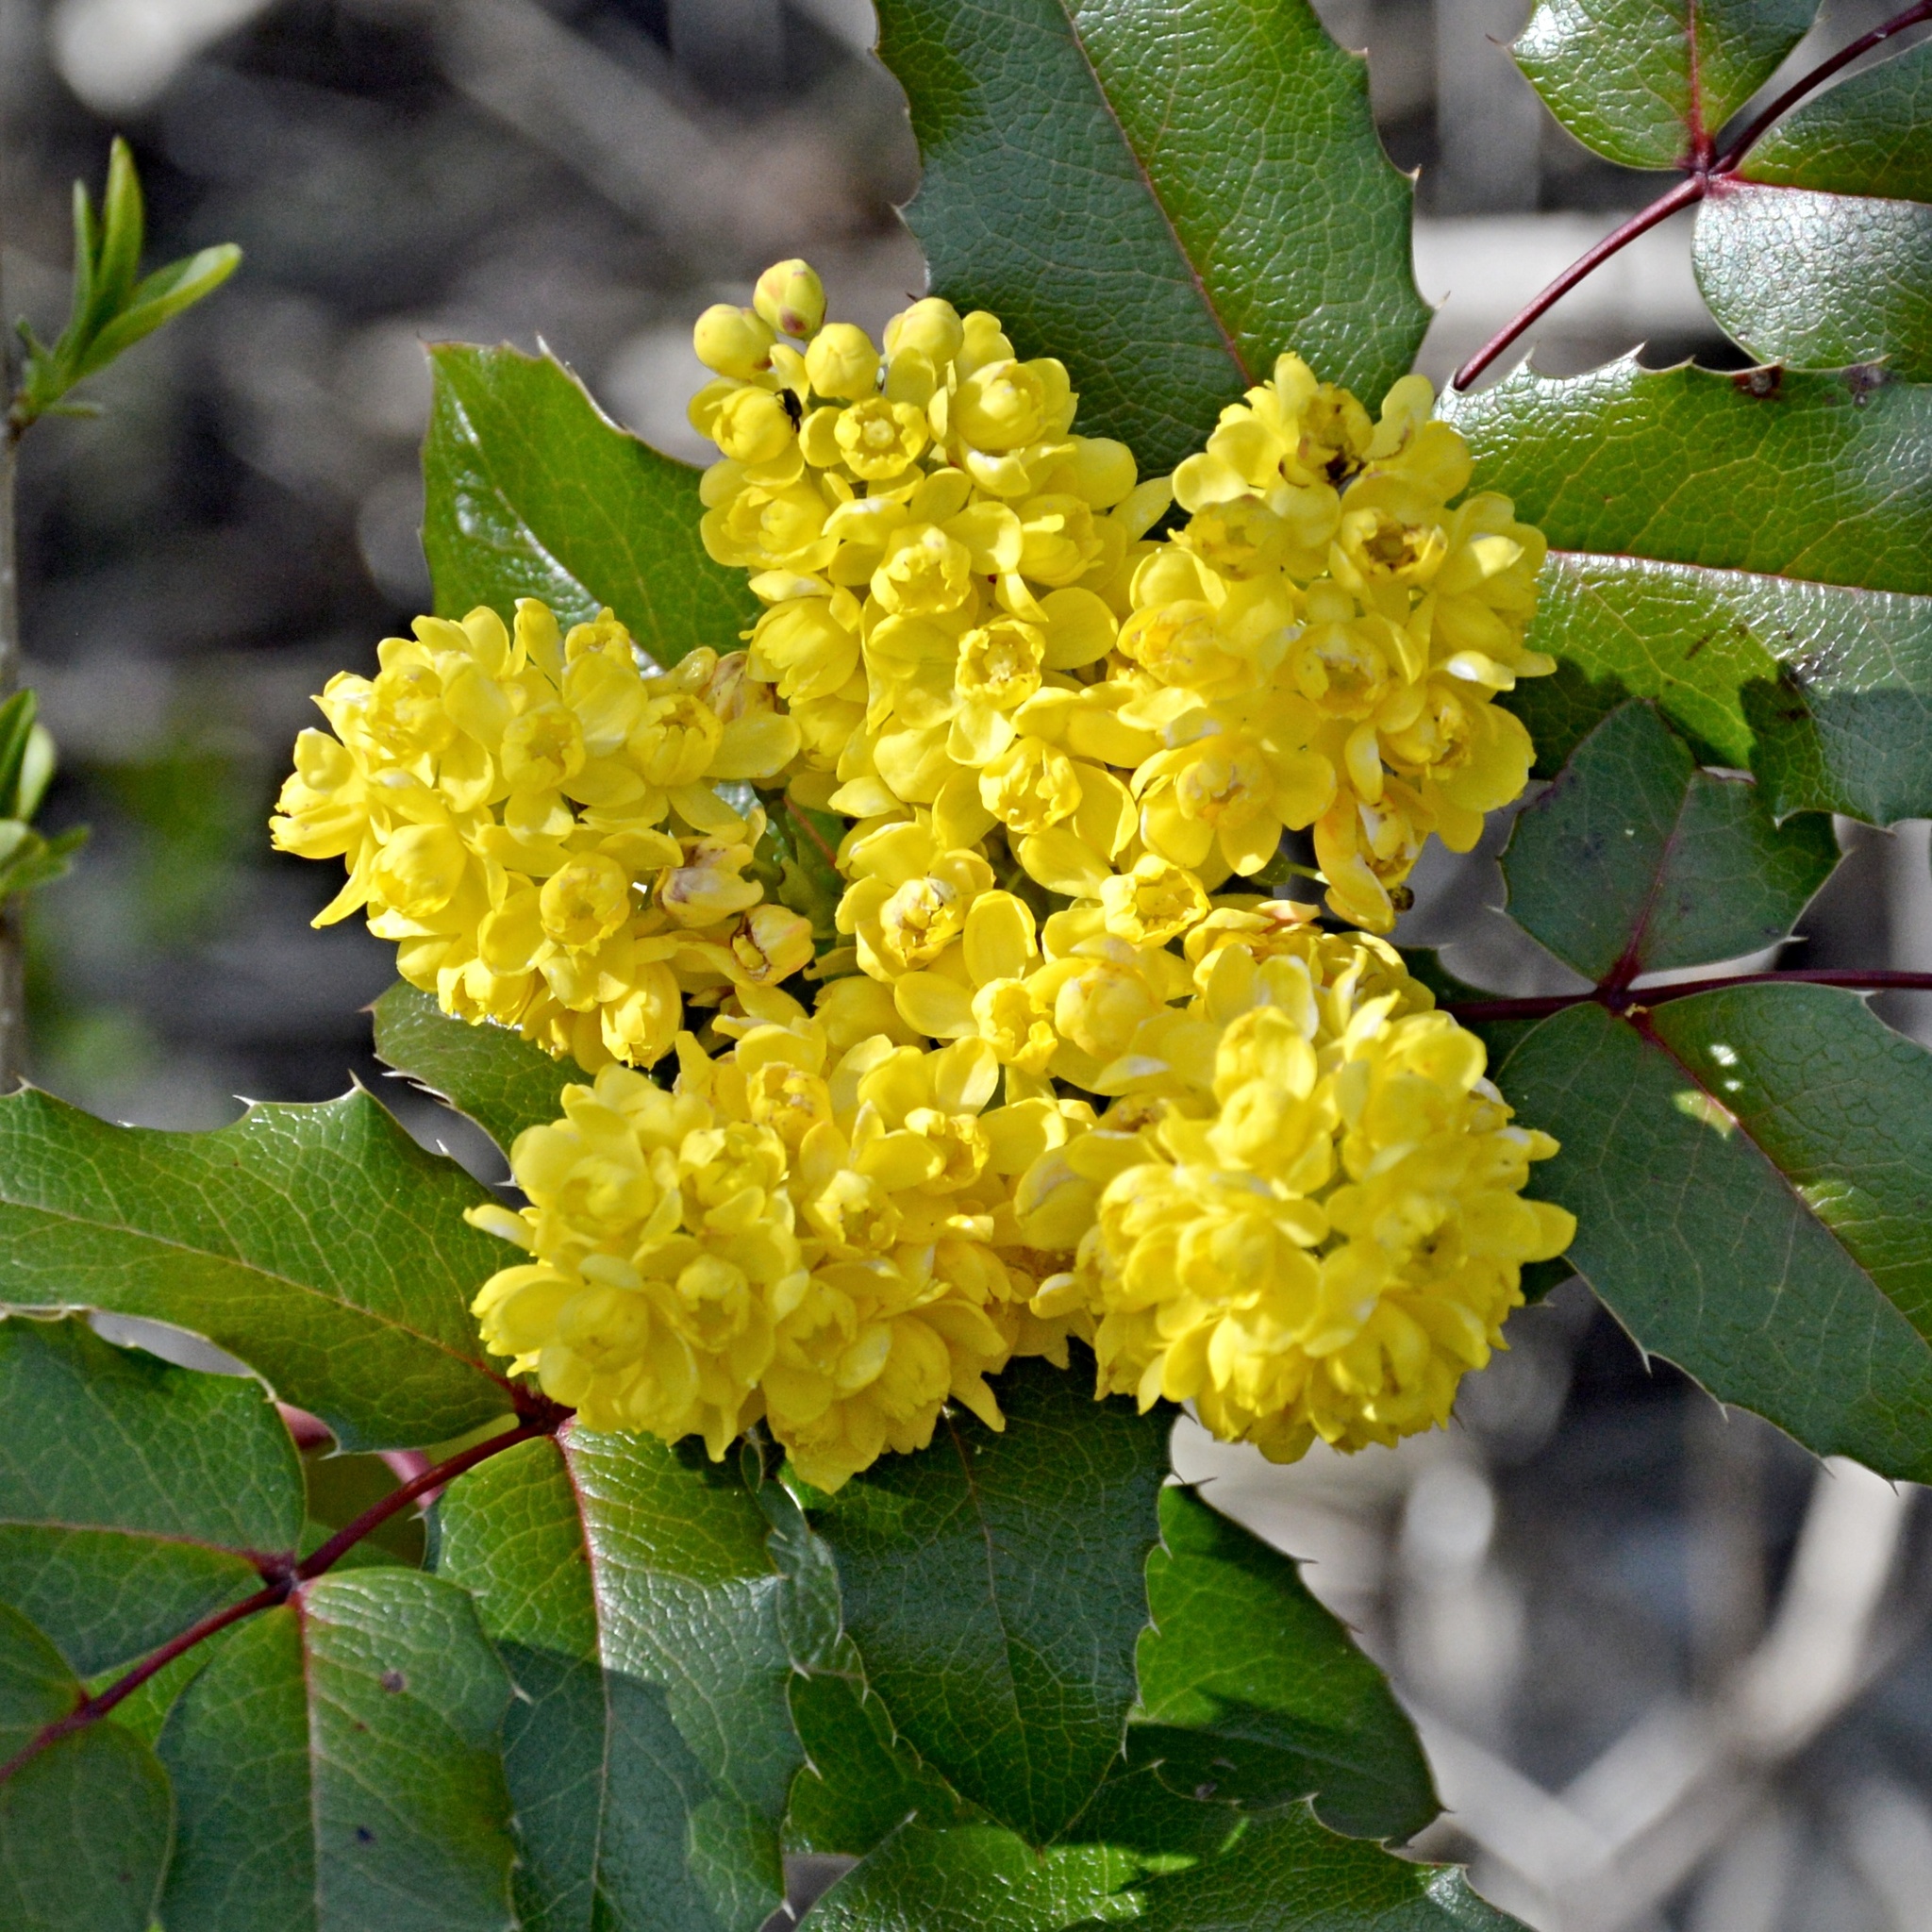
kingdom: Plantae
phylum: Tracheophyta
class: Magnoliopsida
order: Ranunculales
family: Berberidaceae
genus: Mahonia
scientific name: Mahonia aquifolium
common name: Oregon-grape
